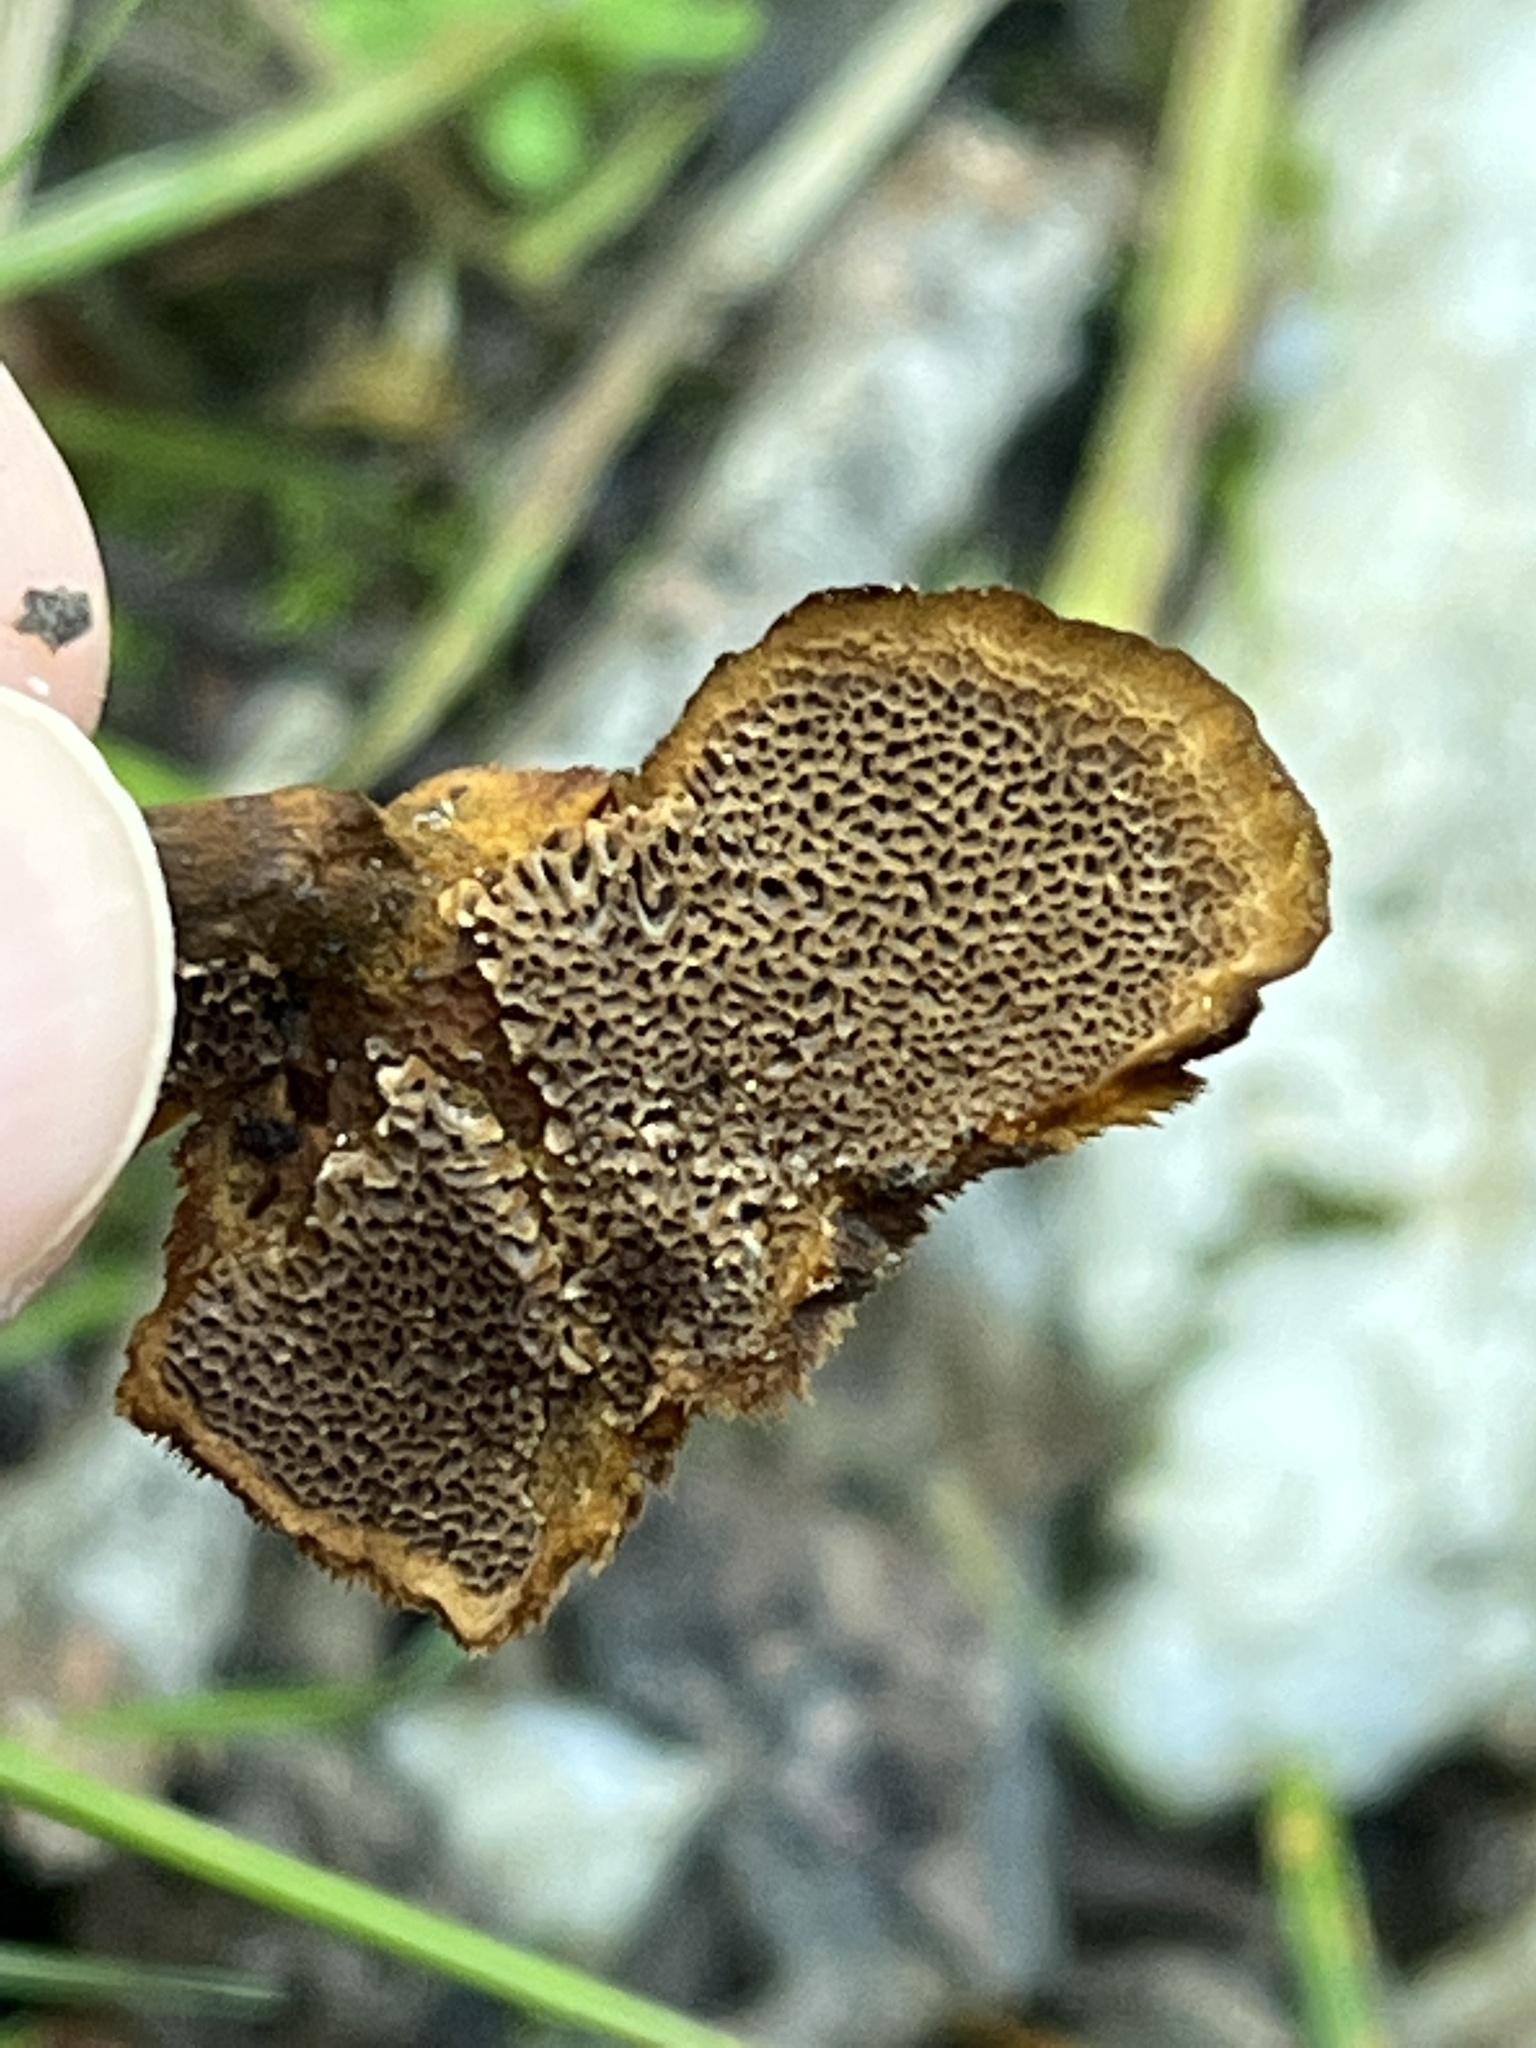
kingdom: Fungi
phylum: Basidiomycota
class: Agaricomycetes
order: Hymenochaetales
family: Hymenochaetaceae
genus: Coltricia
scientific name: Coltricia cinnamomea
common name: Shiny cinnamon polypore
